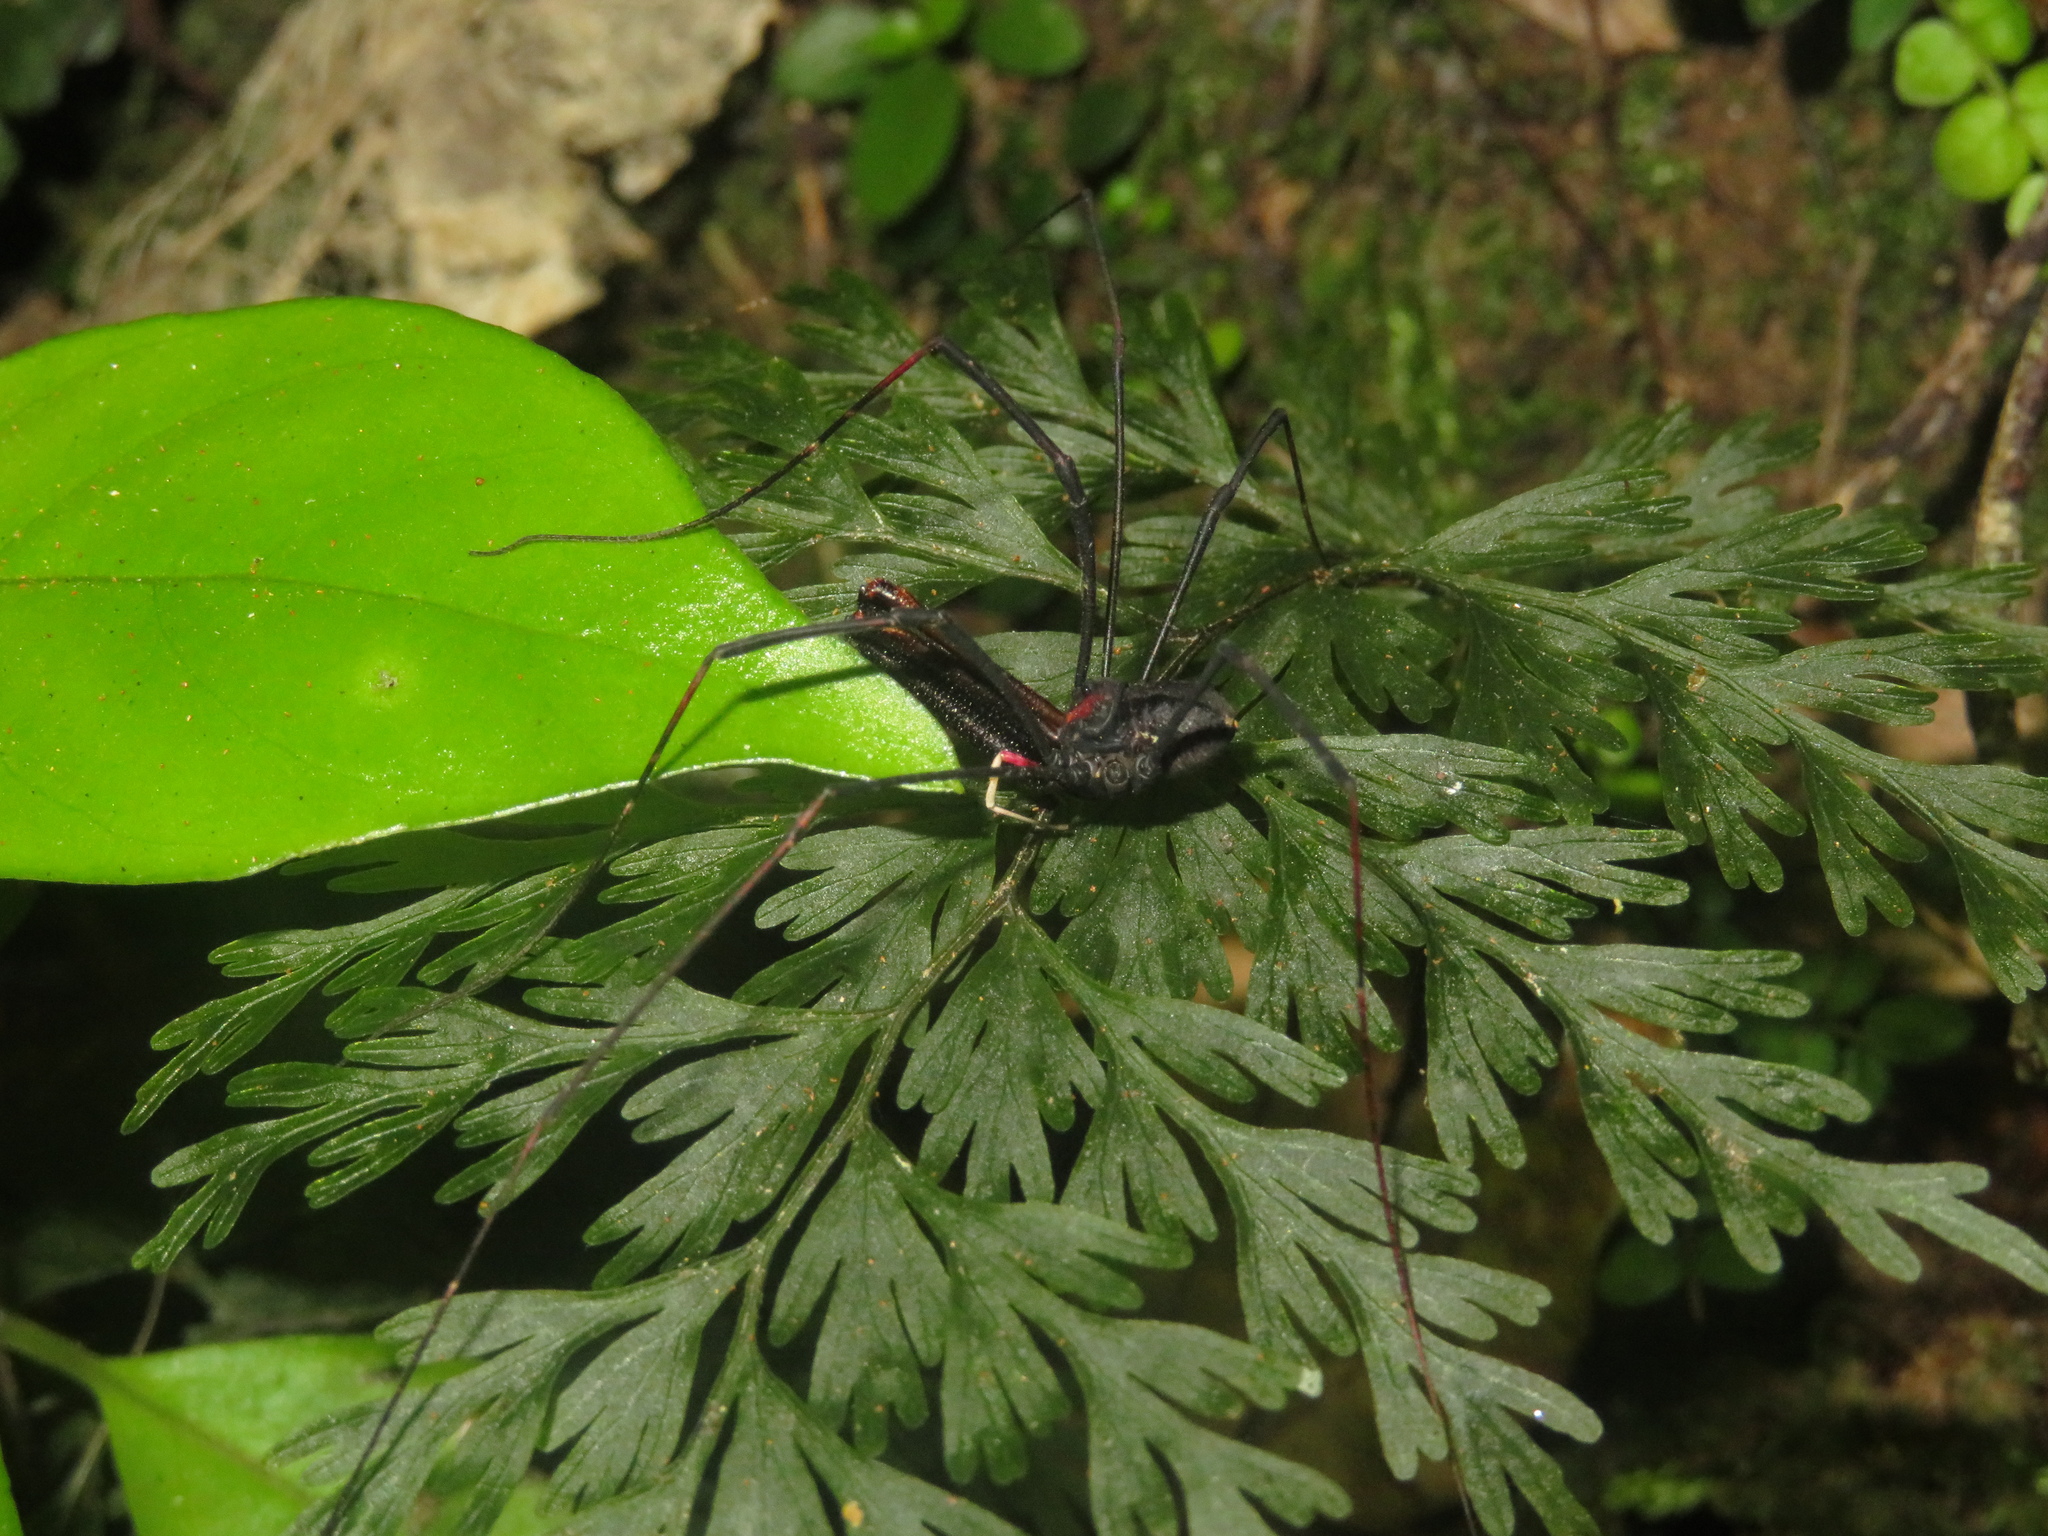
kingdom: Animalia
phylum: Arthropoda
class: Arachnida
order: Opiliones
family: Neopilionidae
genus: Forsteropsalis
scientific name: Forsteropsalis inconstans
